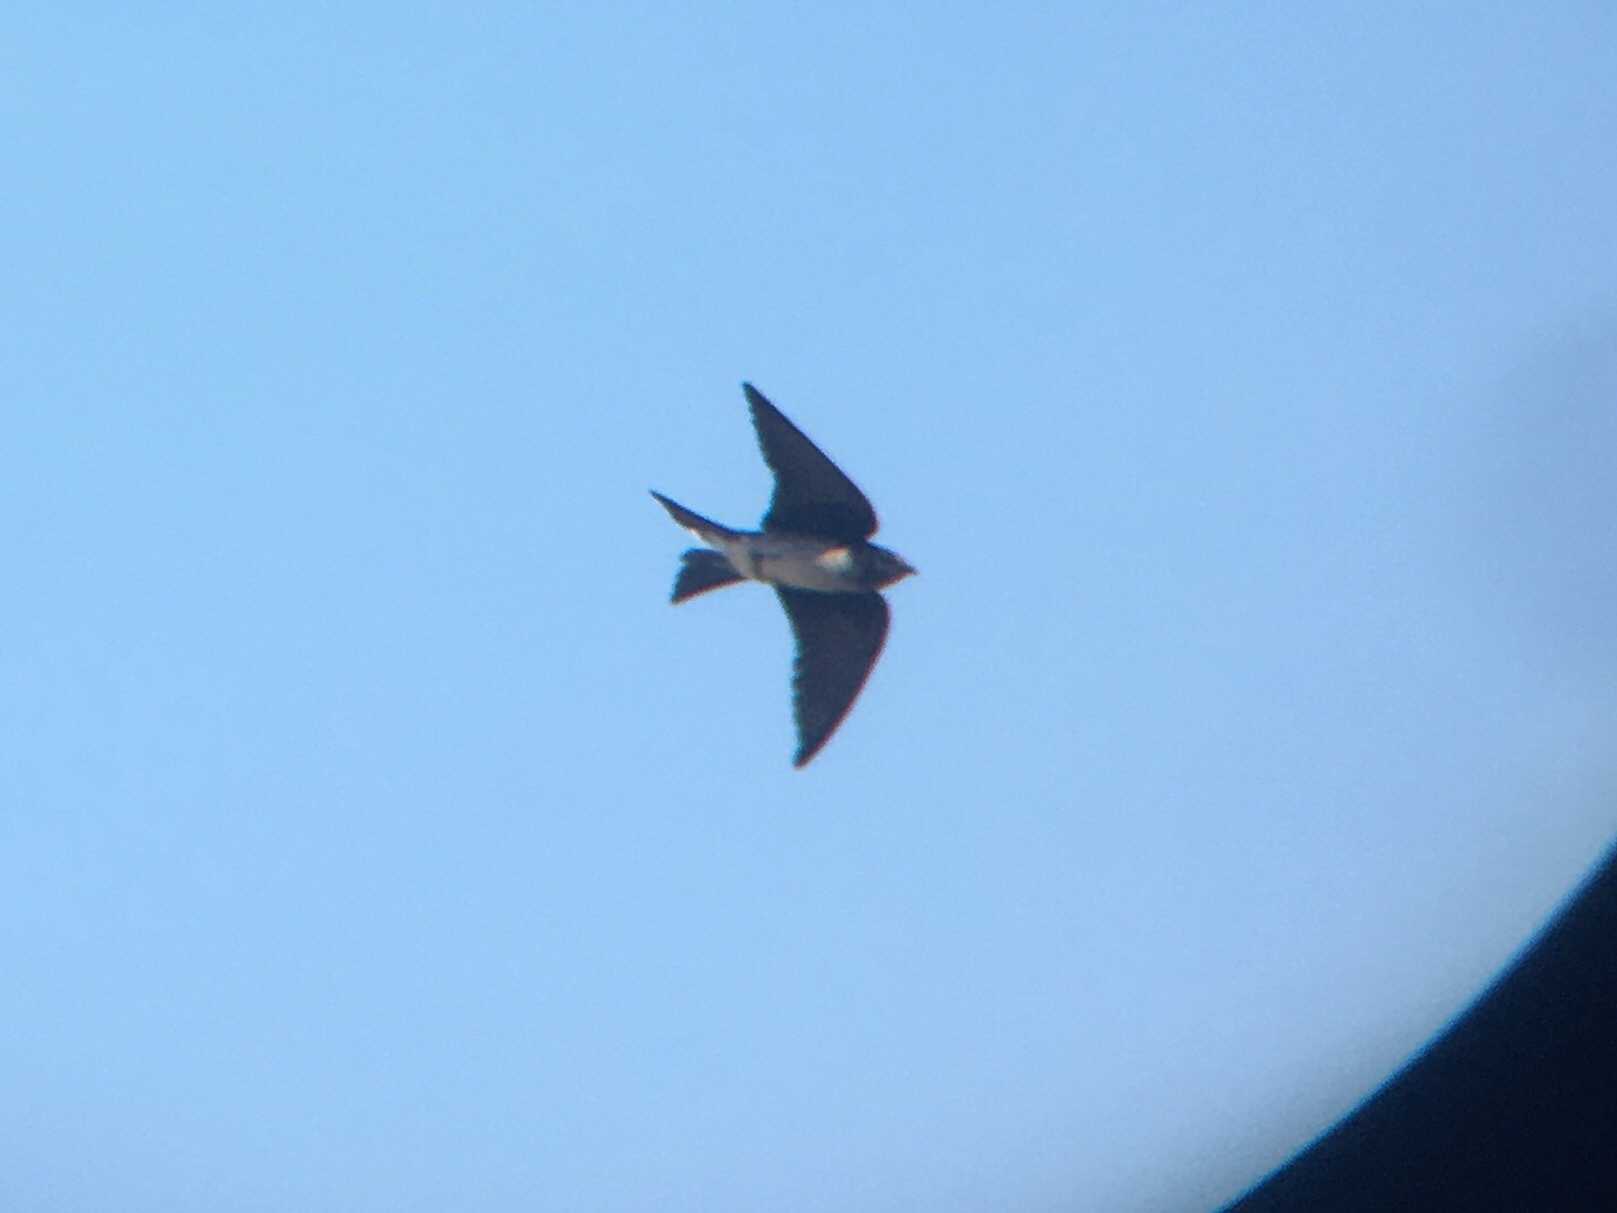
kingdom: Animalia
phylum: Chordata
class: Aves
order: Passeriformes
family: Hirundinidae
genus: Progne
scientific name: Progne chalybea
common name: Grey-breasted martin
